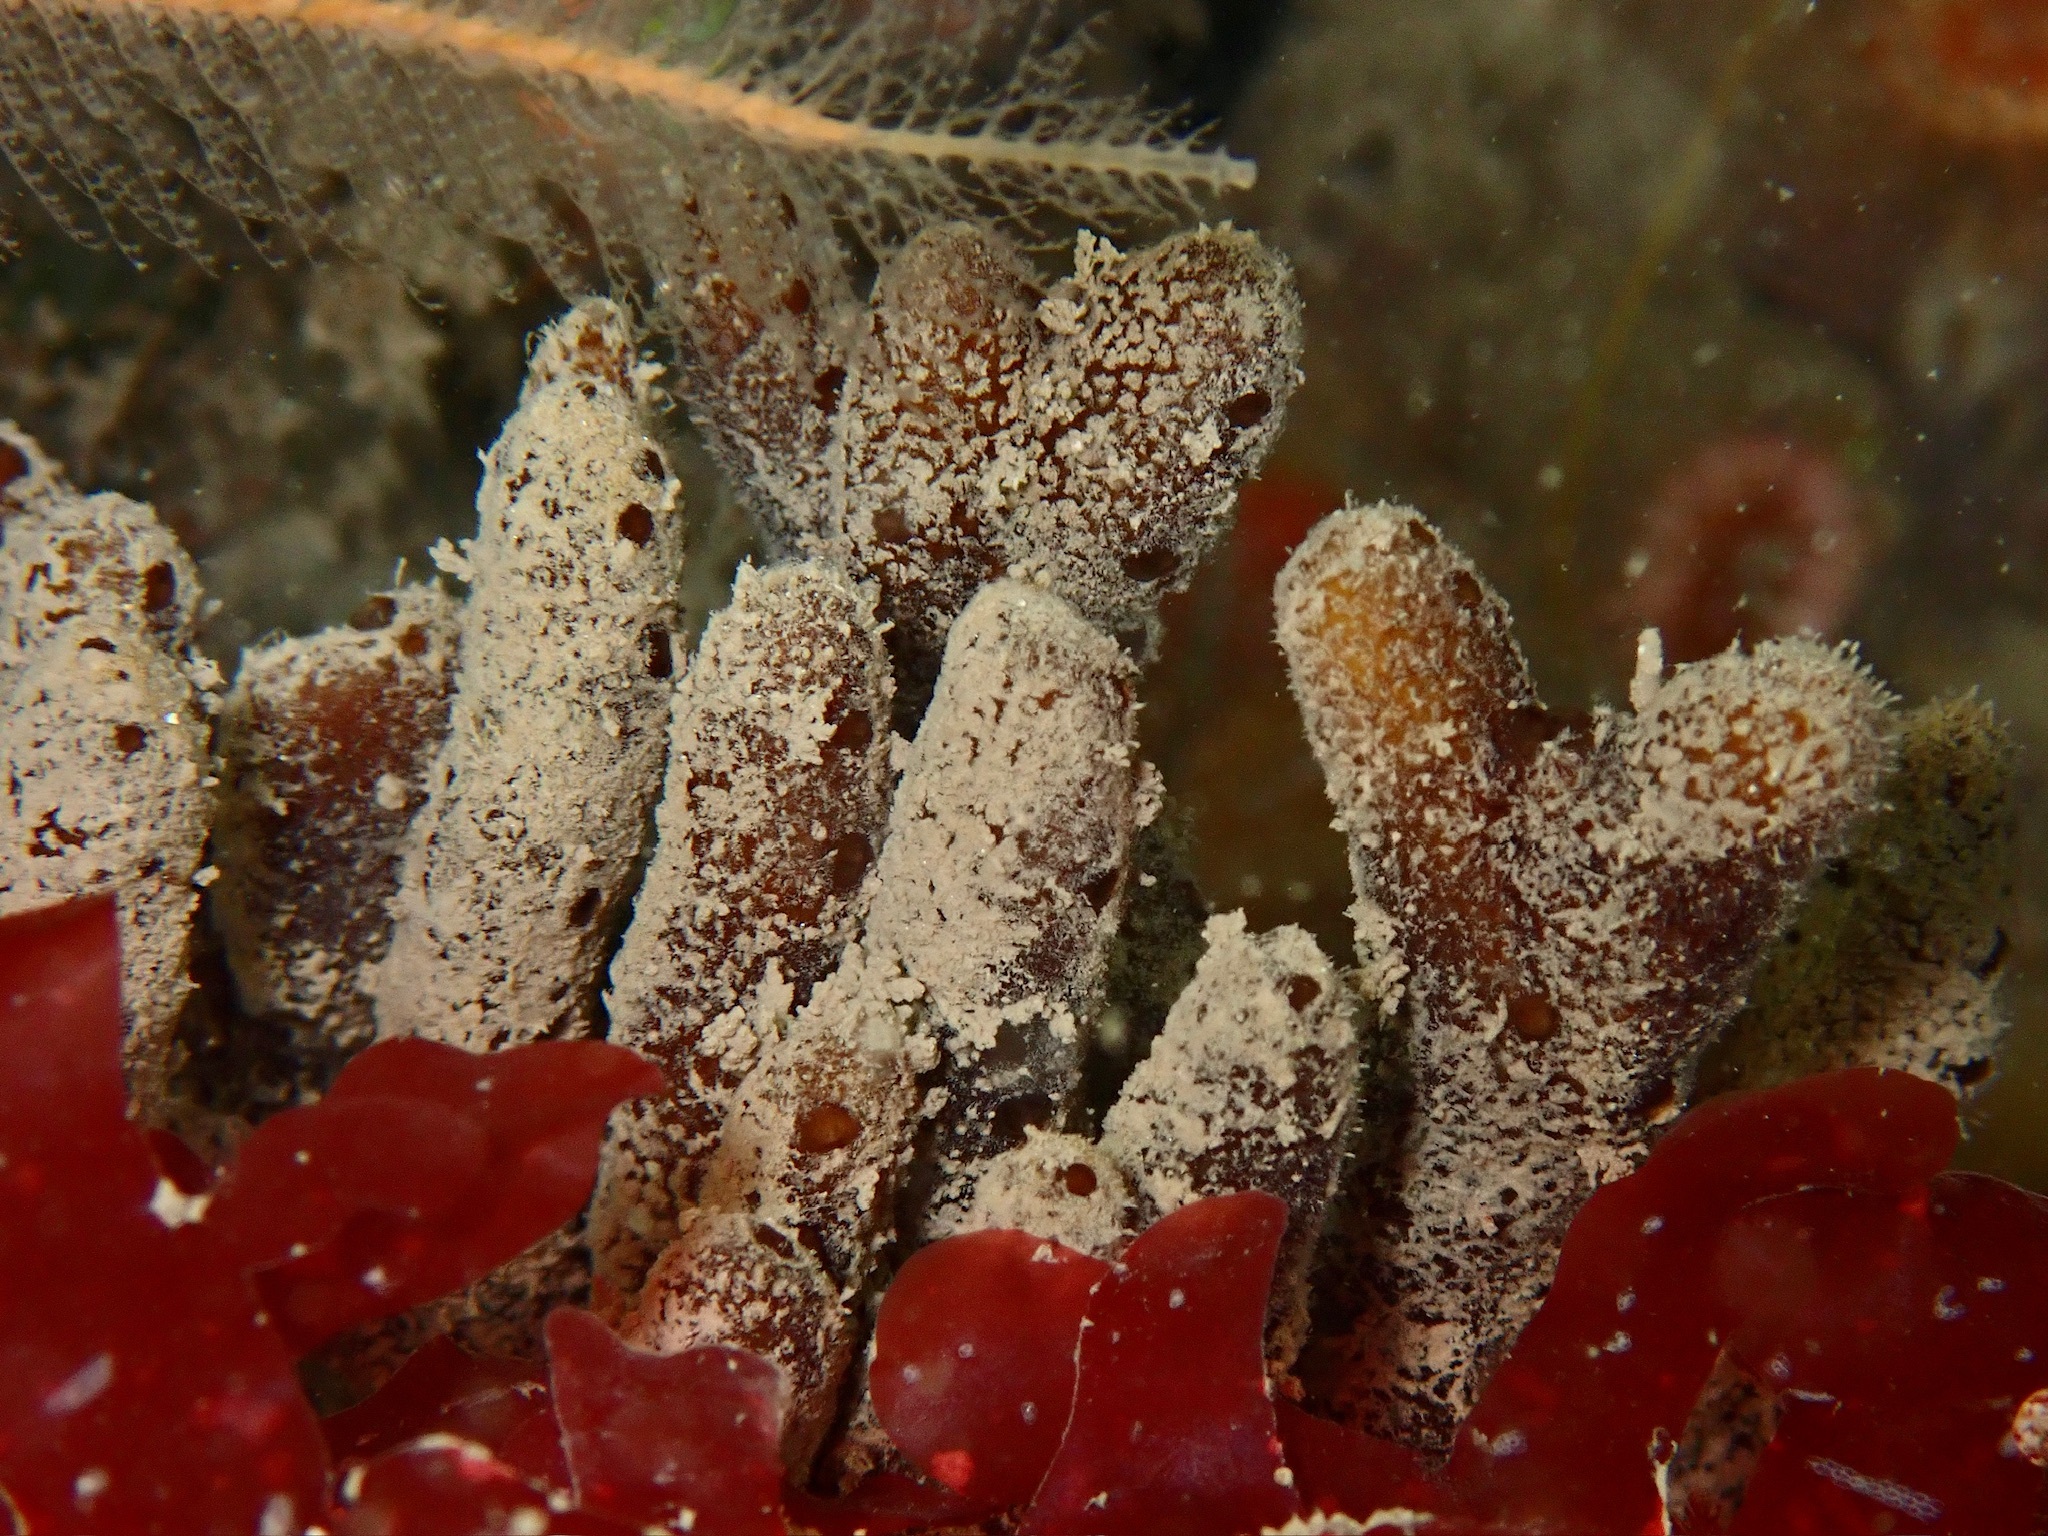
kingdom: Animalia
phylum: Porifera
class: Demospongiae
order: Axinellida
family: Raspailiidae
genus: Raspailia
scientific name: Raspailia ramosa
